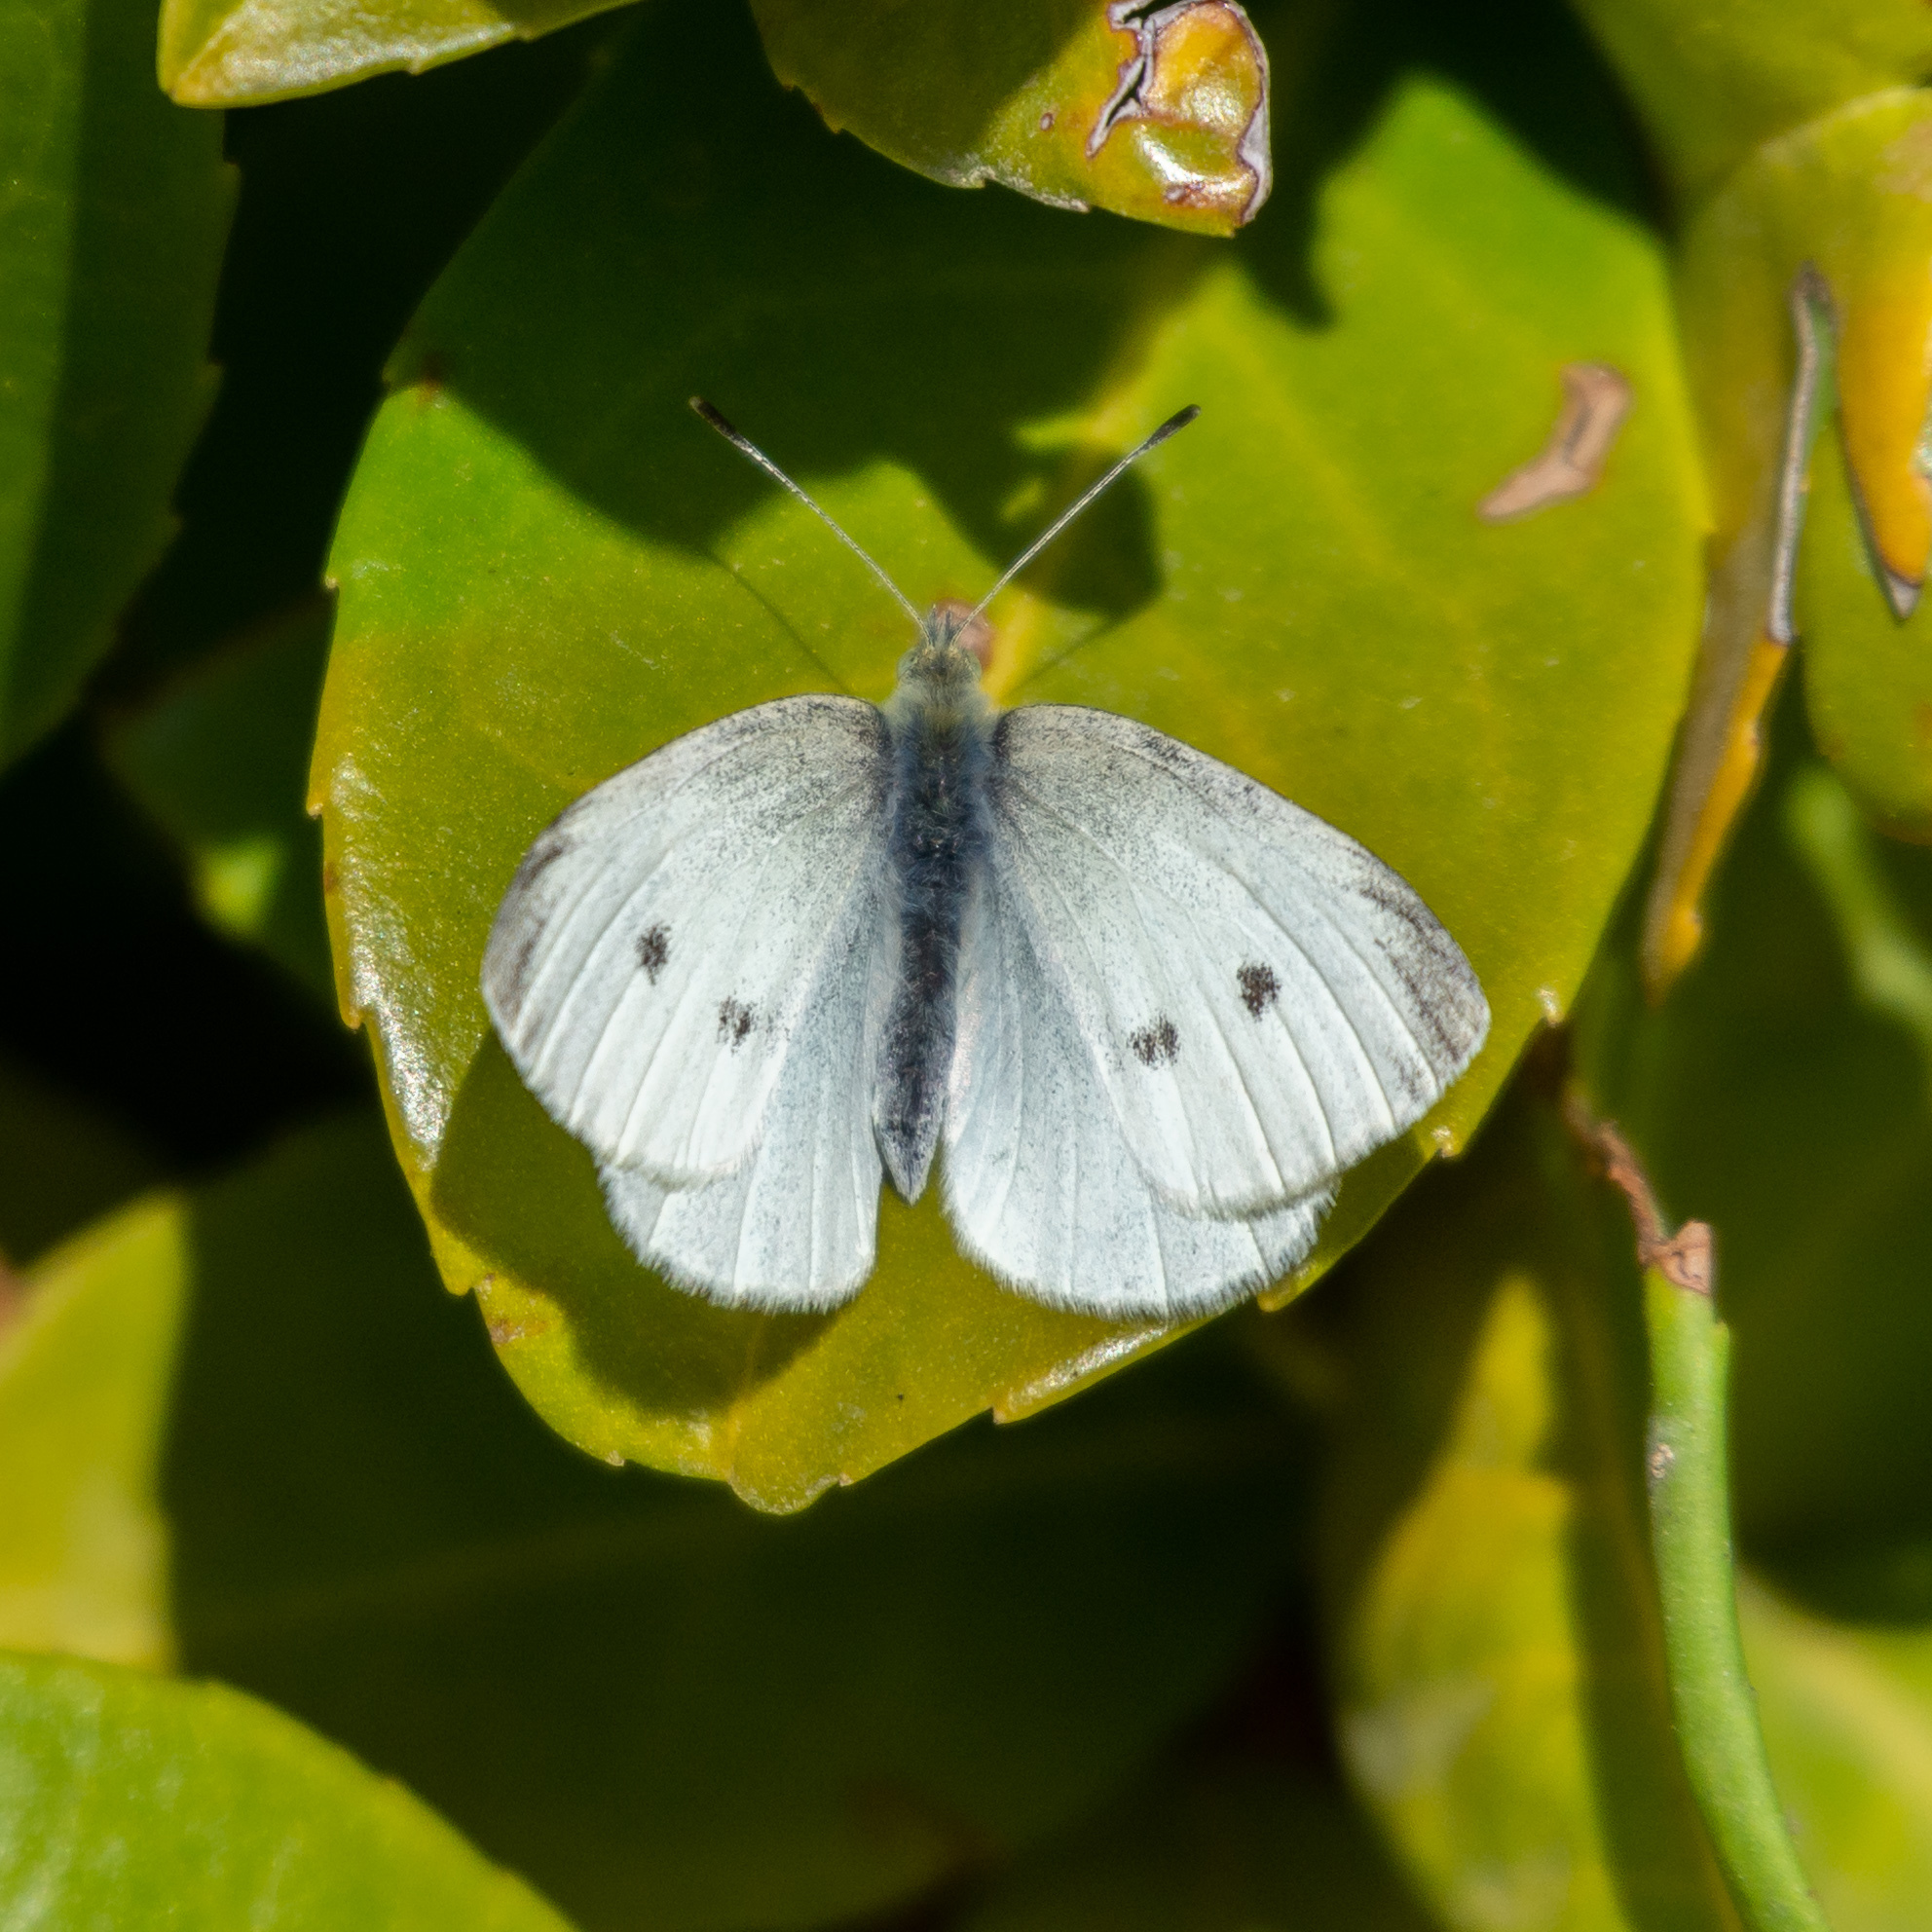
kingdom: Animalia
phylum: Arthropoda
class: Insecta
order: Lepidoptera
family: Pieridae
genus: Pieris
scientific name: Pieris rapae
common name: Small white
